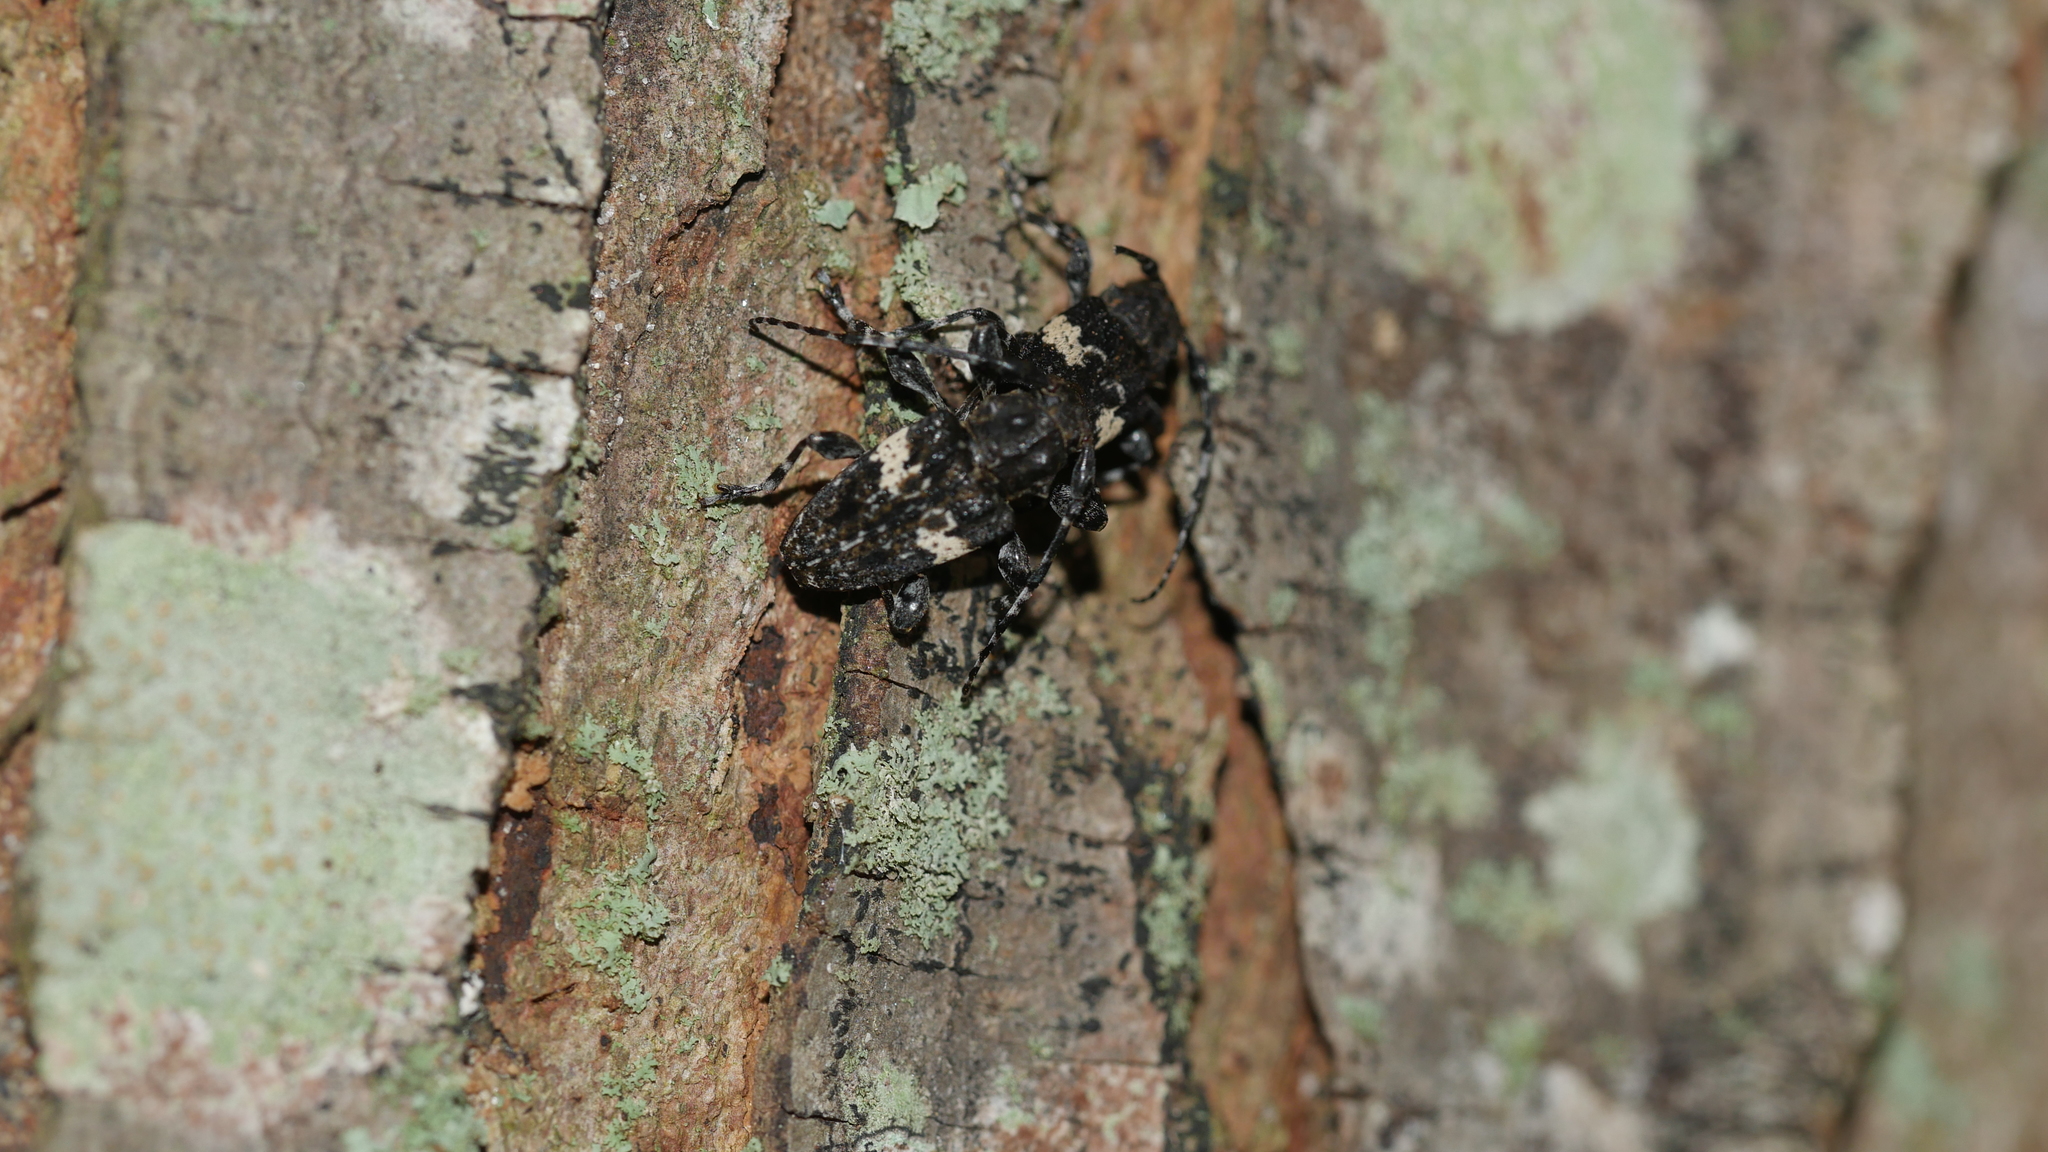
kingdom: Animalia
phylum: Arthropoda
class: Insecta
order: Coleoptera
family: Cerambycidae
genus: Acanthoderes
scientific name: Acanthoderes quadrigibba
